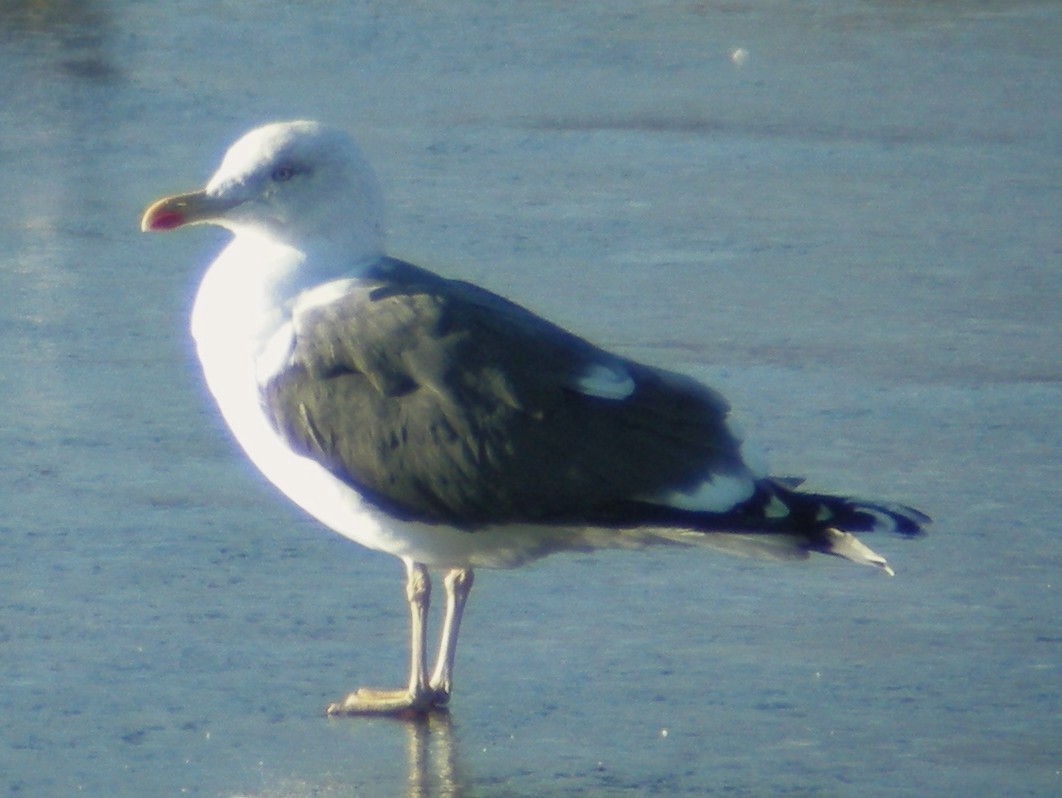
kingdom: Animalia
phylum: Chordata
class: Aves
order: Charadriiformes
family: Laridae
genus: Larus
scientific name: Larus fuscus
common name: Lesser black-backed gull
